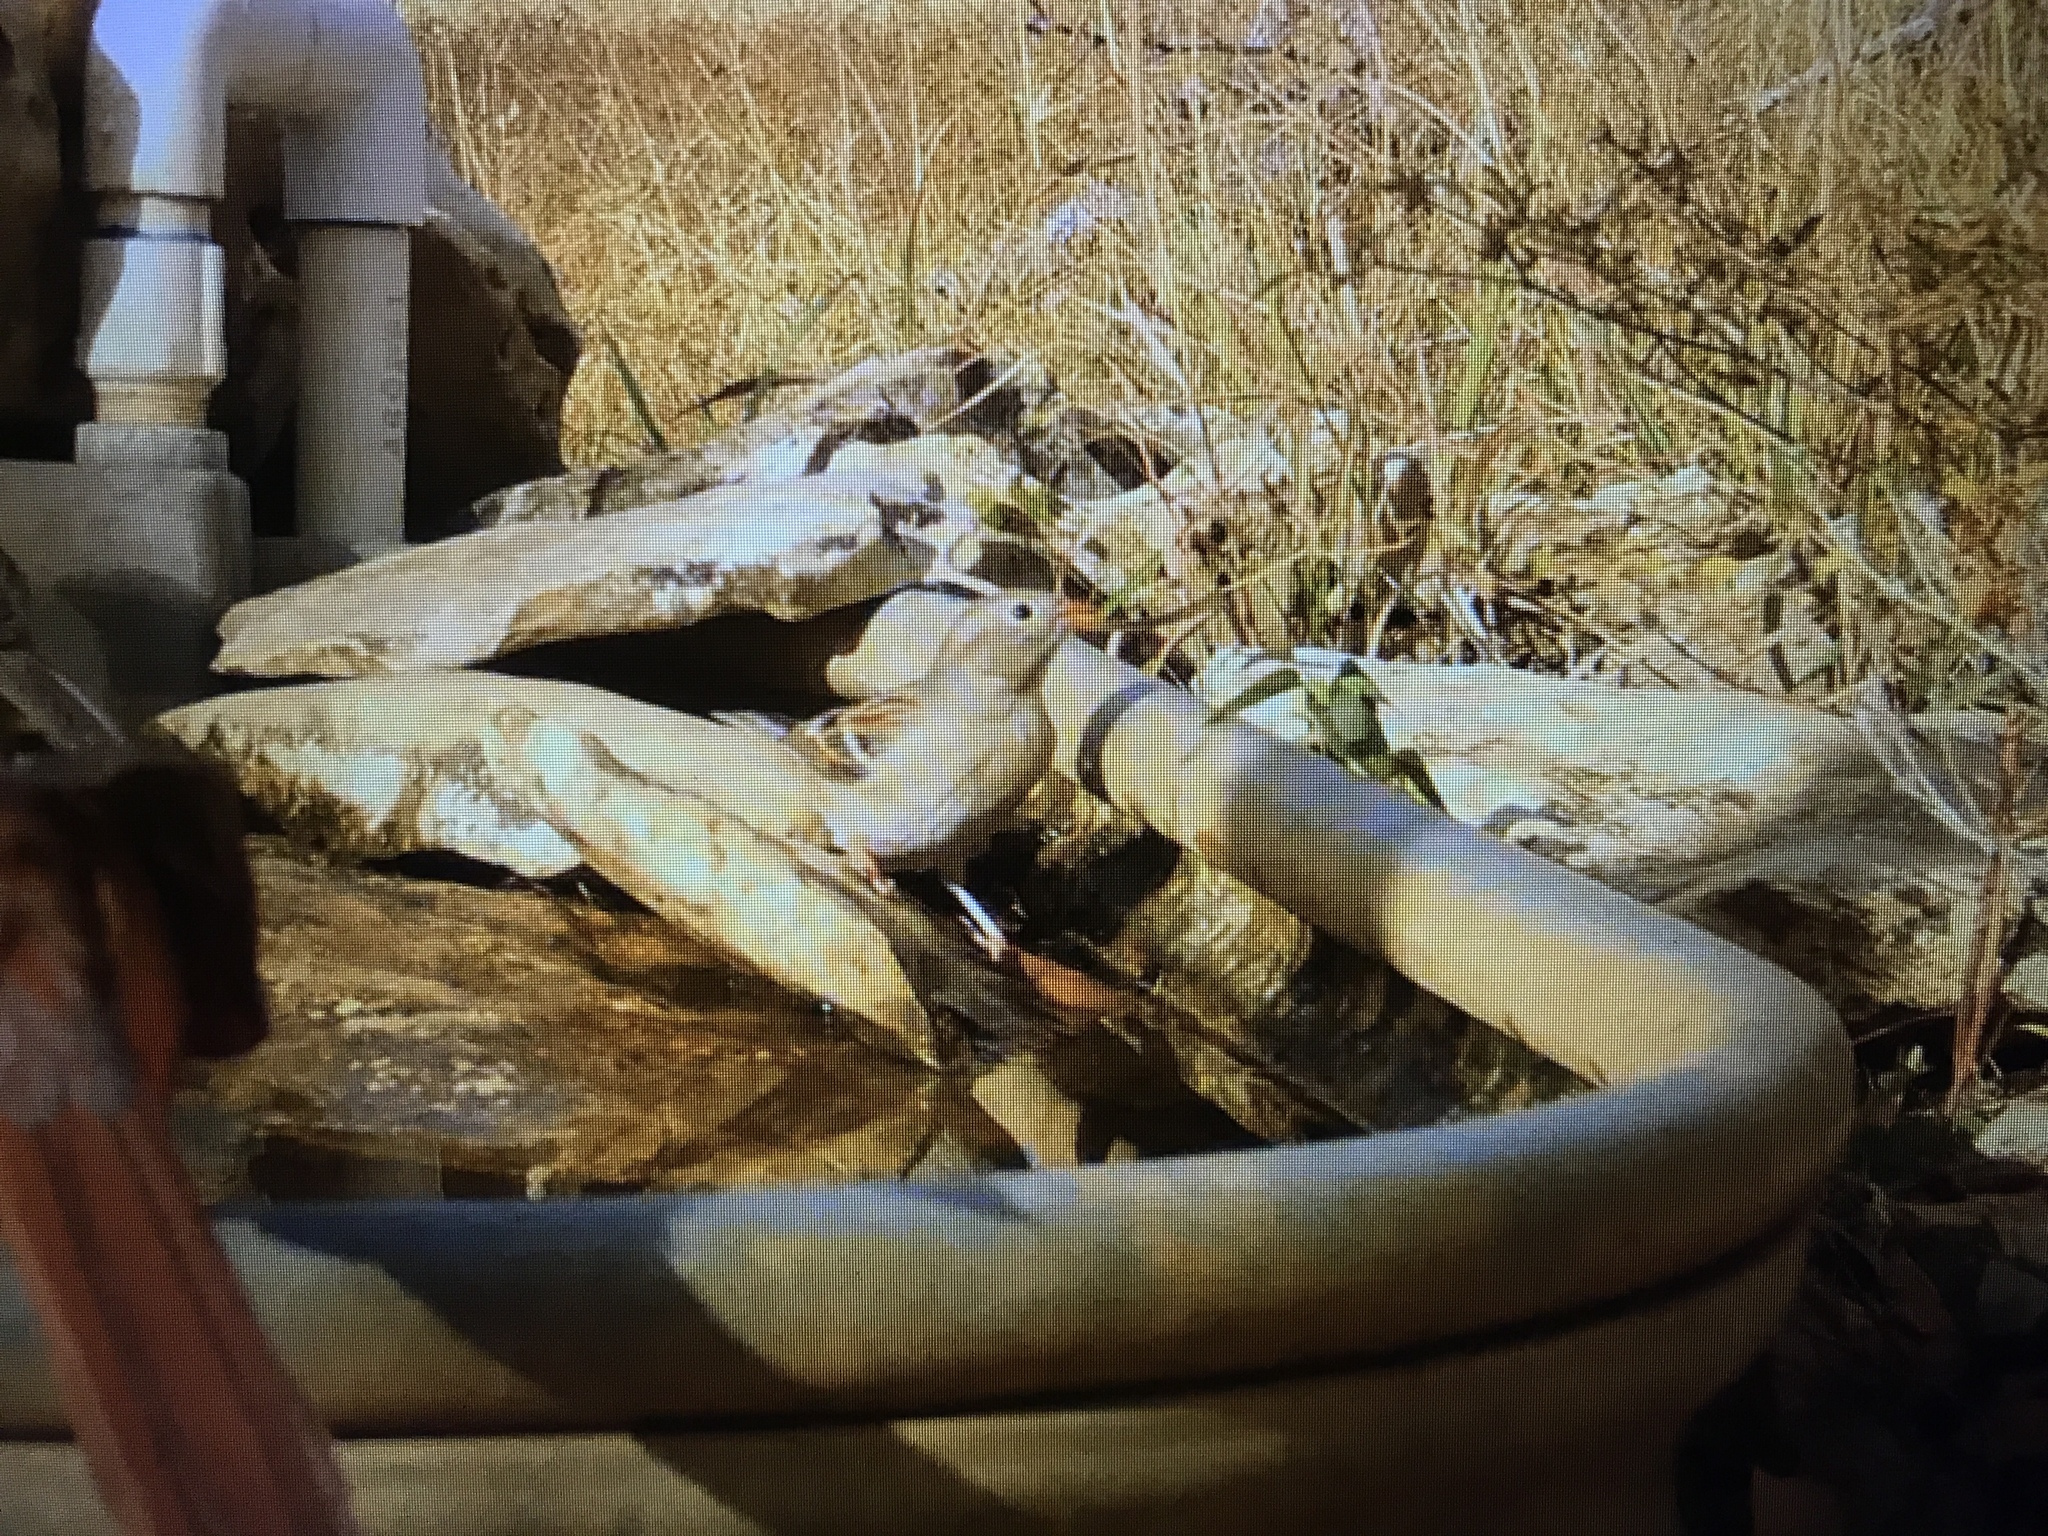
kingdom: Animalia
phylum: Chordata
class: Aves
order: Passeriformes
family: Passerellidae
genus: Spizella
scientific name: Spizella pusilla
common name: Field sparrow
